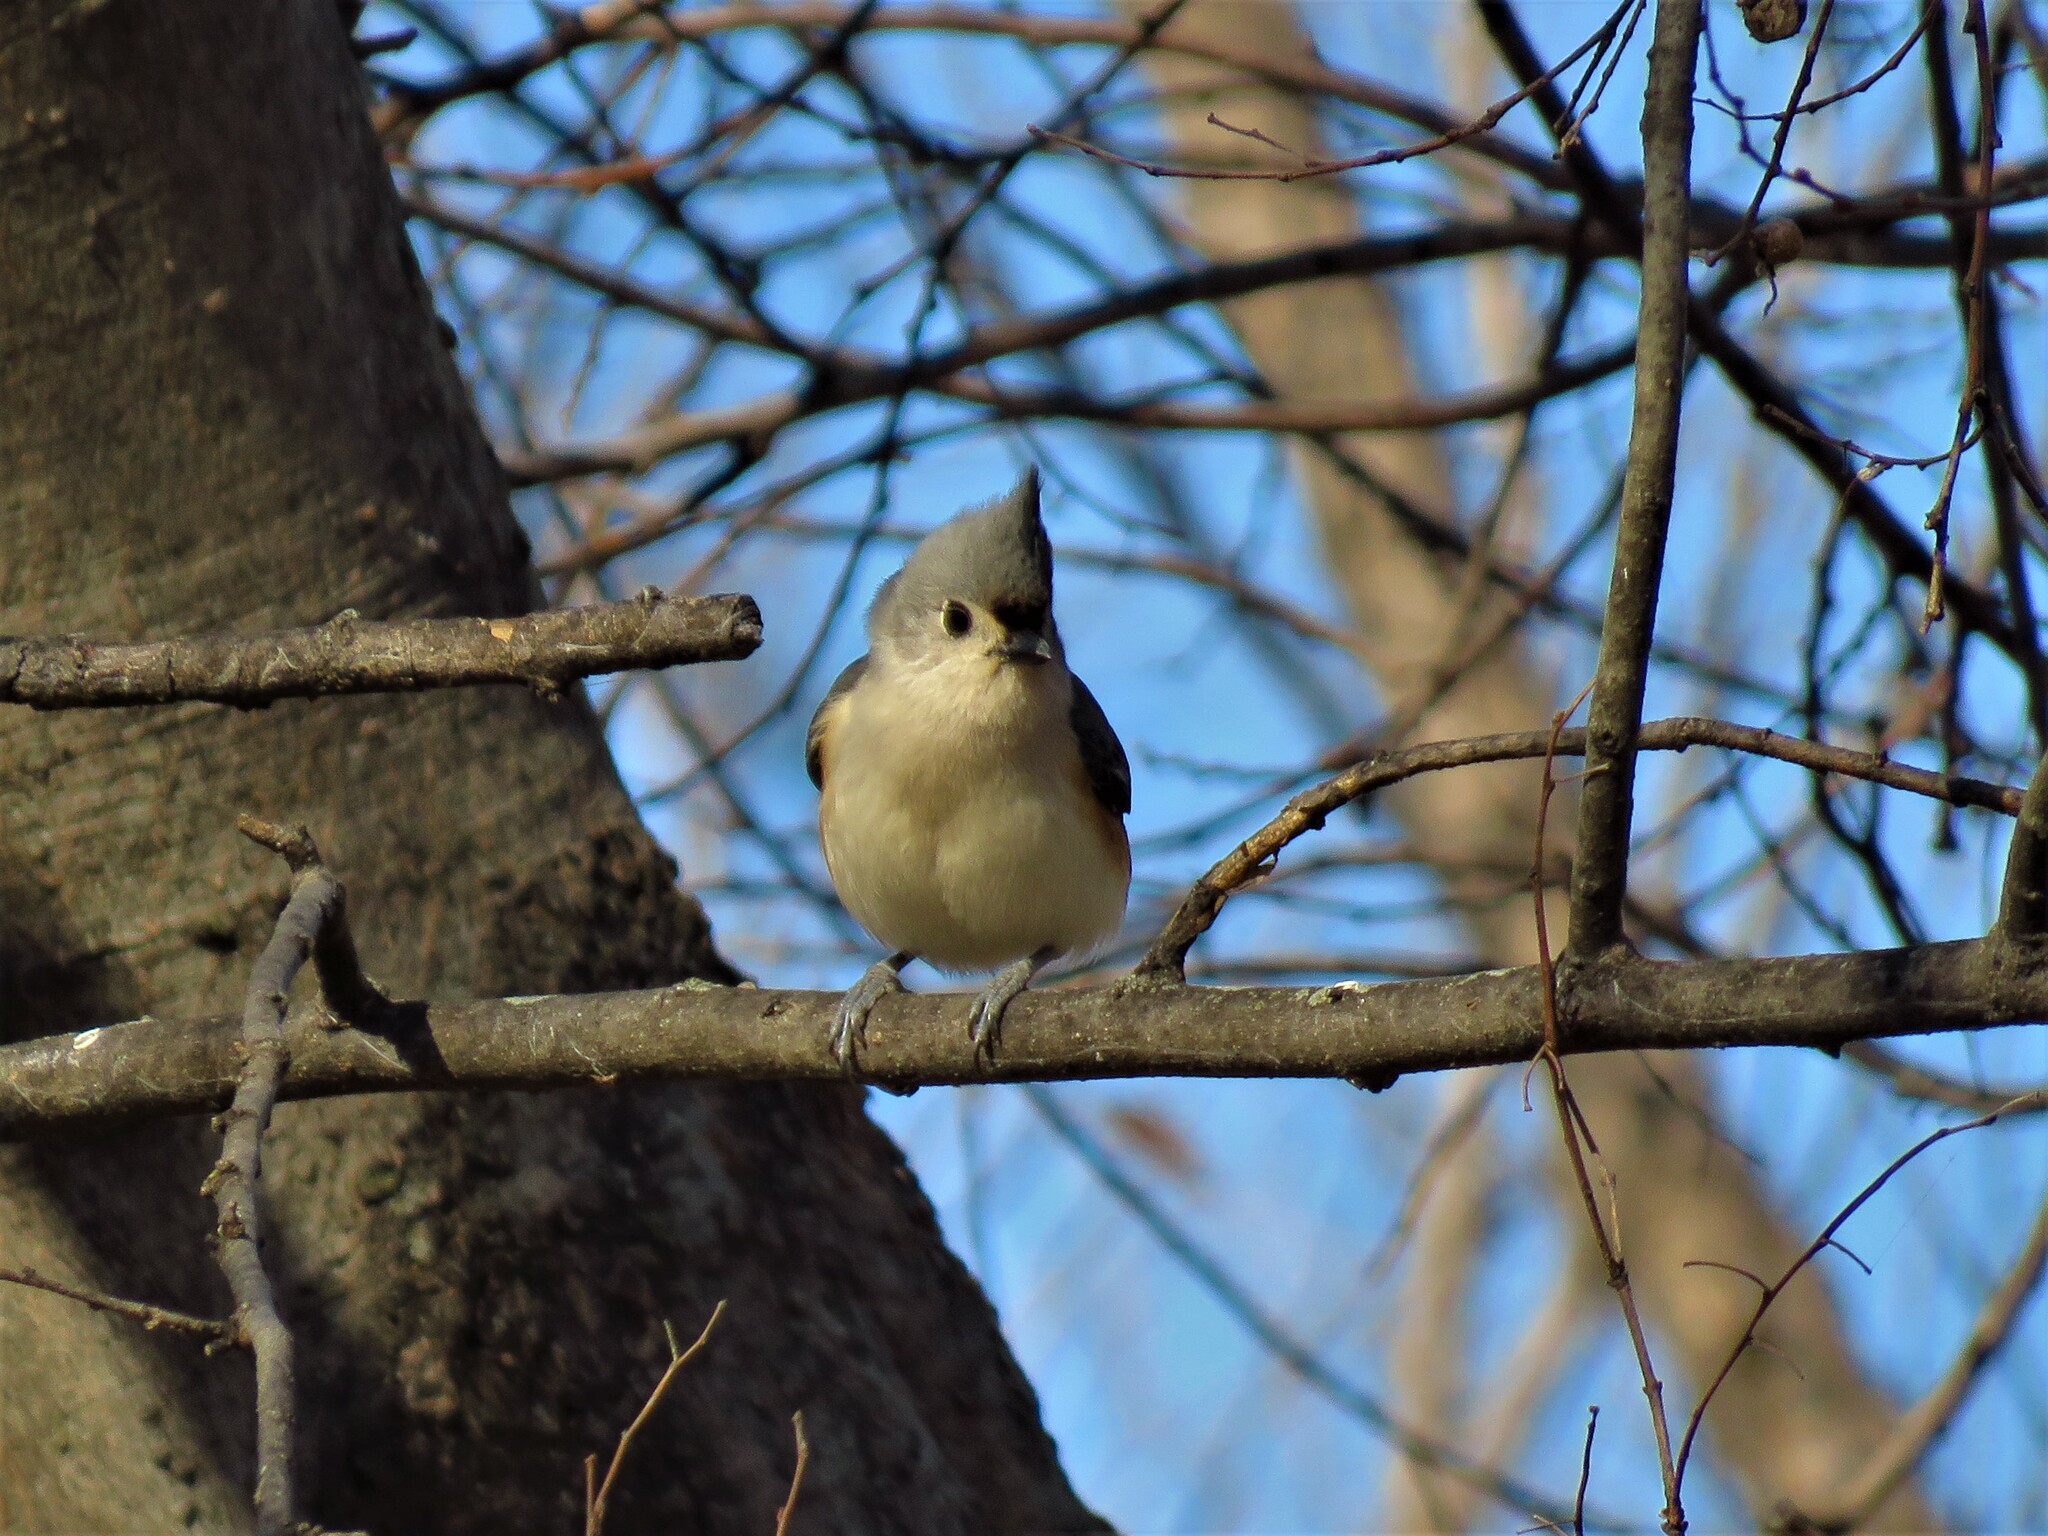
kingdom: Animalia
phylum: Chordata
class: Aves
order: Passeriformes
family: Paridae
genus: Baeolophus
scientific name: Baeolophus bicolor
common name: Tufted titmouse
